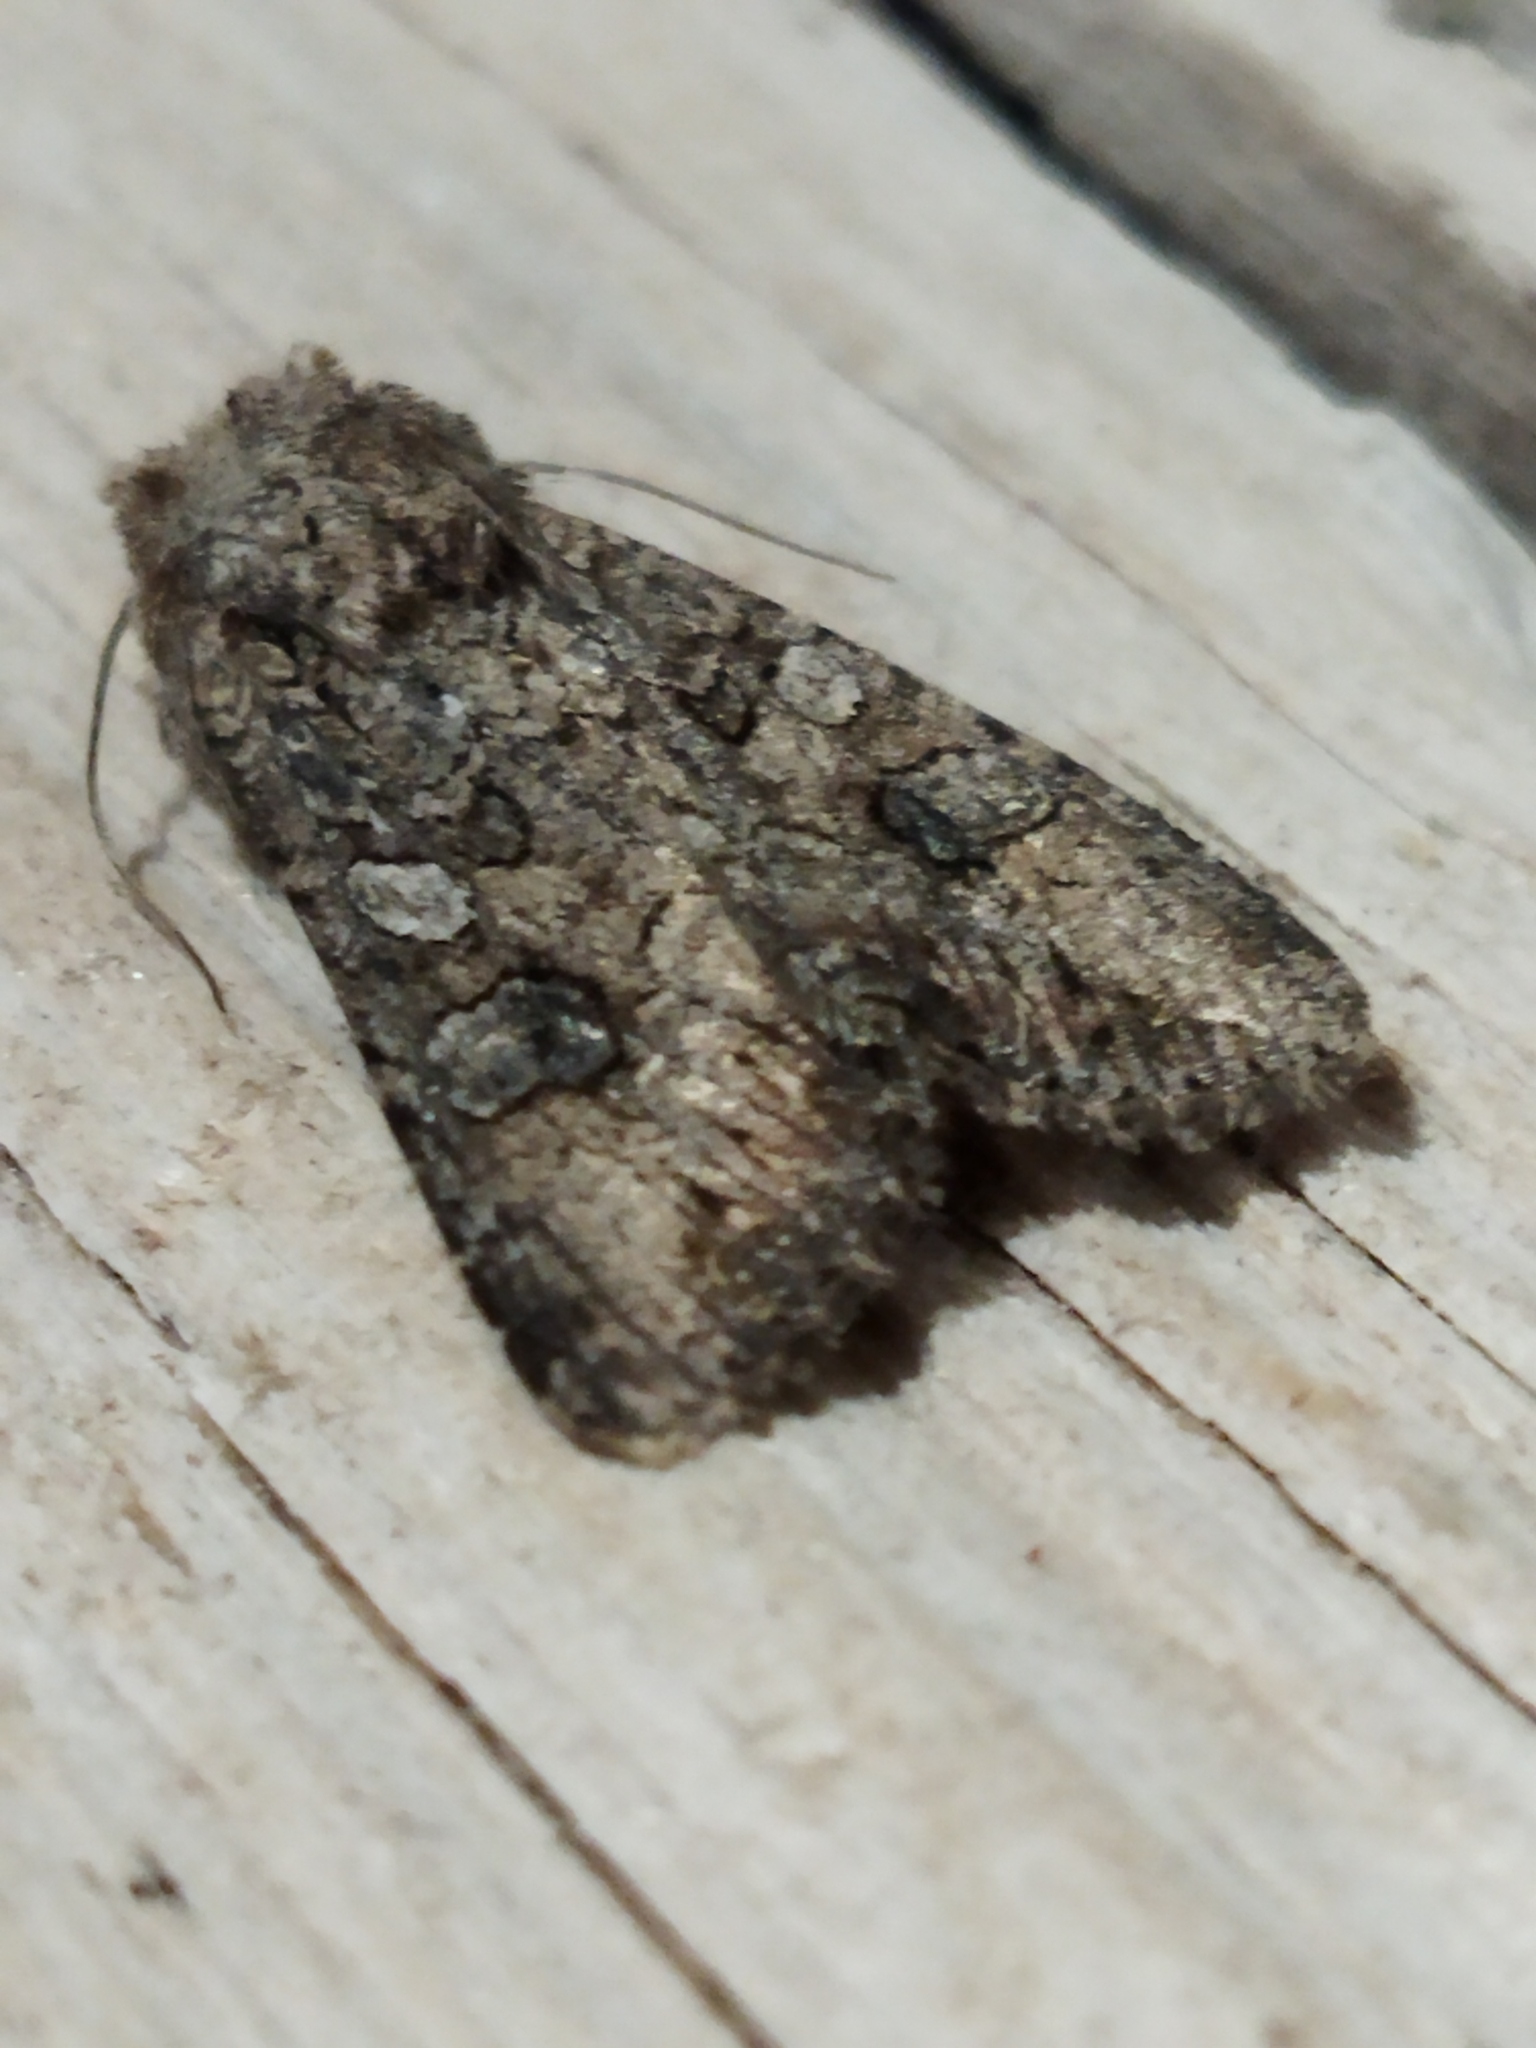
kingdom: Animalia
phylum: Arthropoda
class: Insecta
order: Lepidoptera
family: Noctuidae
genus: Anarta
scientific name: Anarta trifolii
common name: Clover cutworm moth
